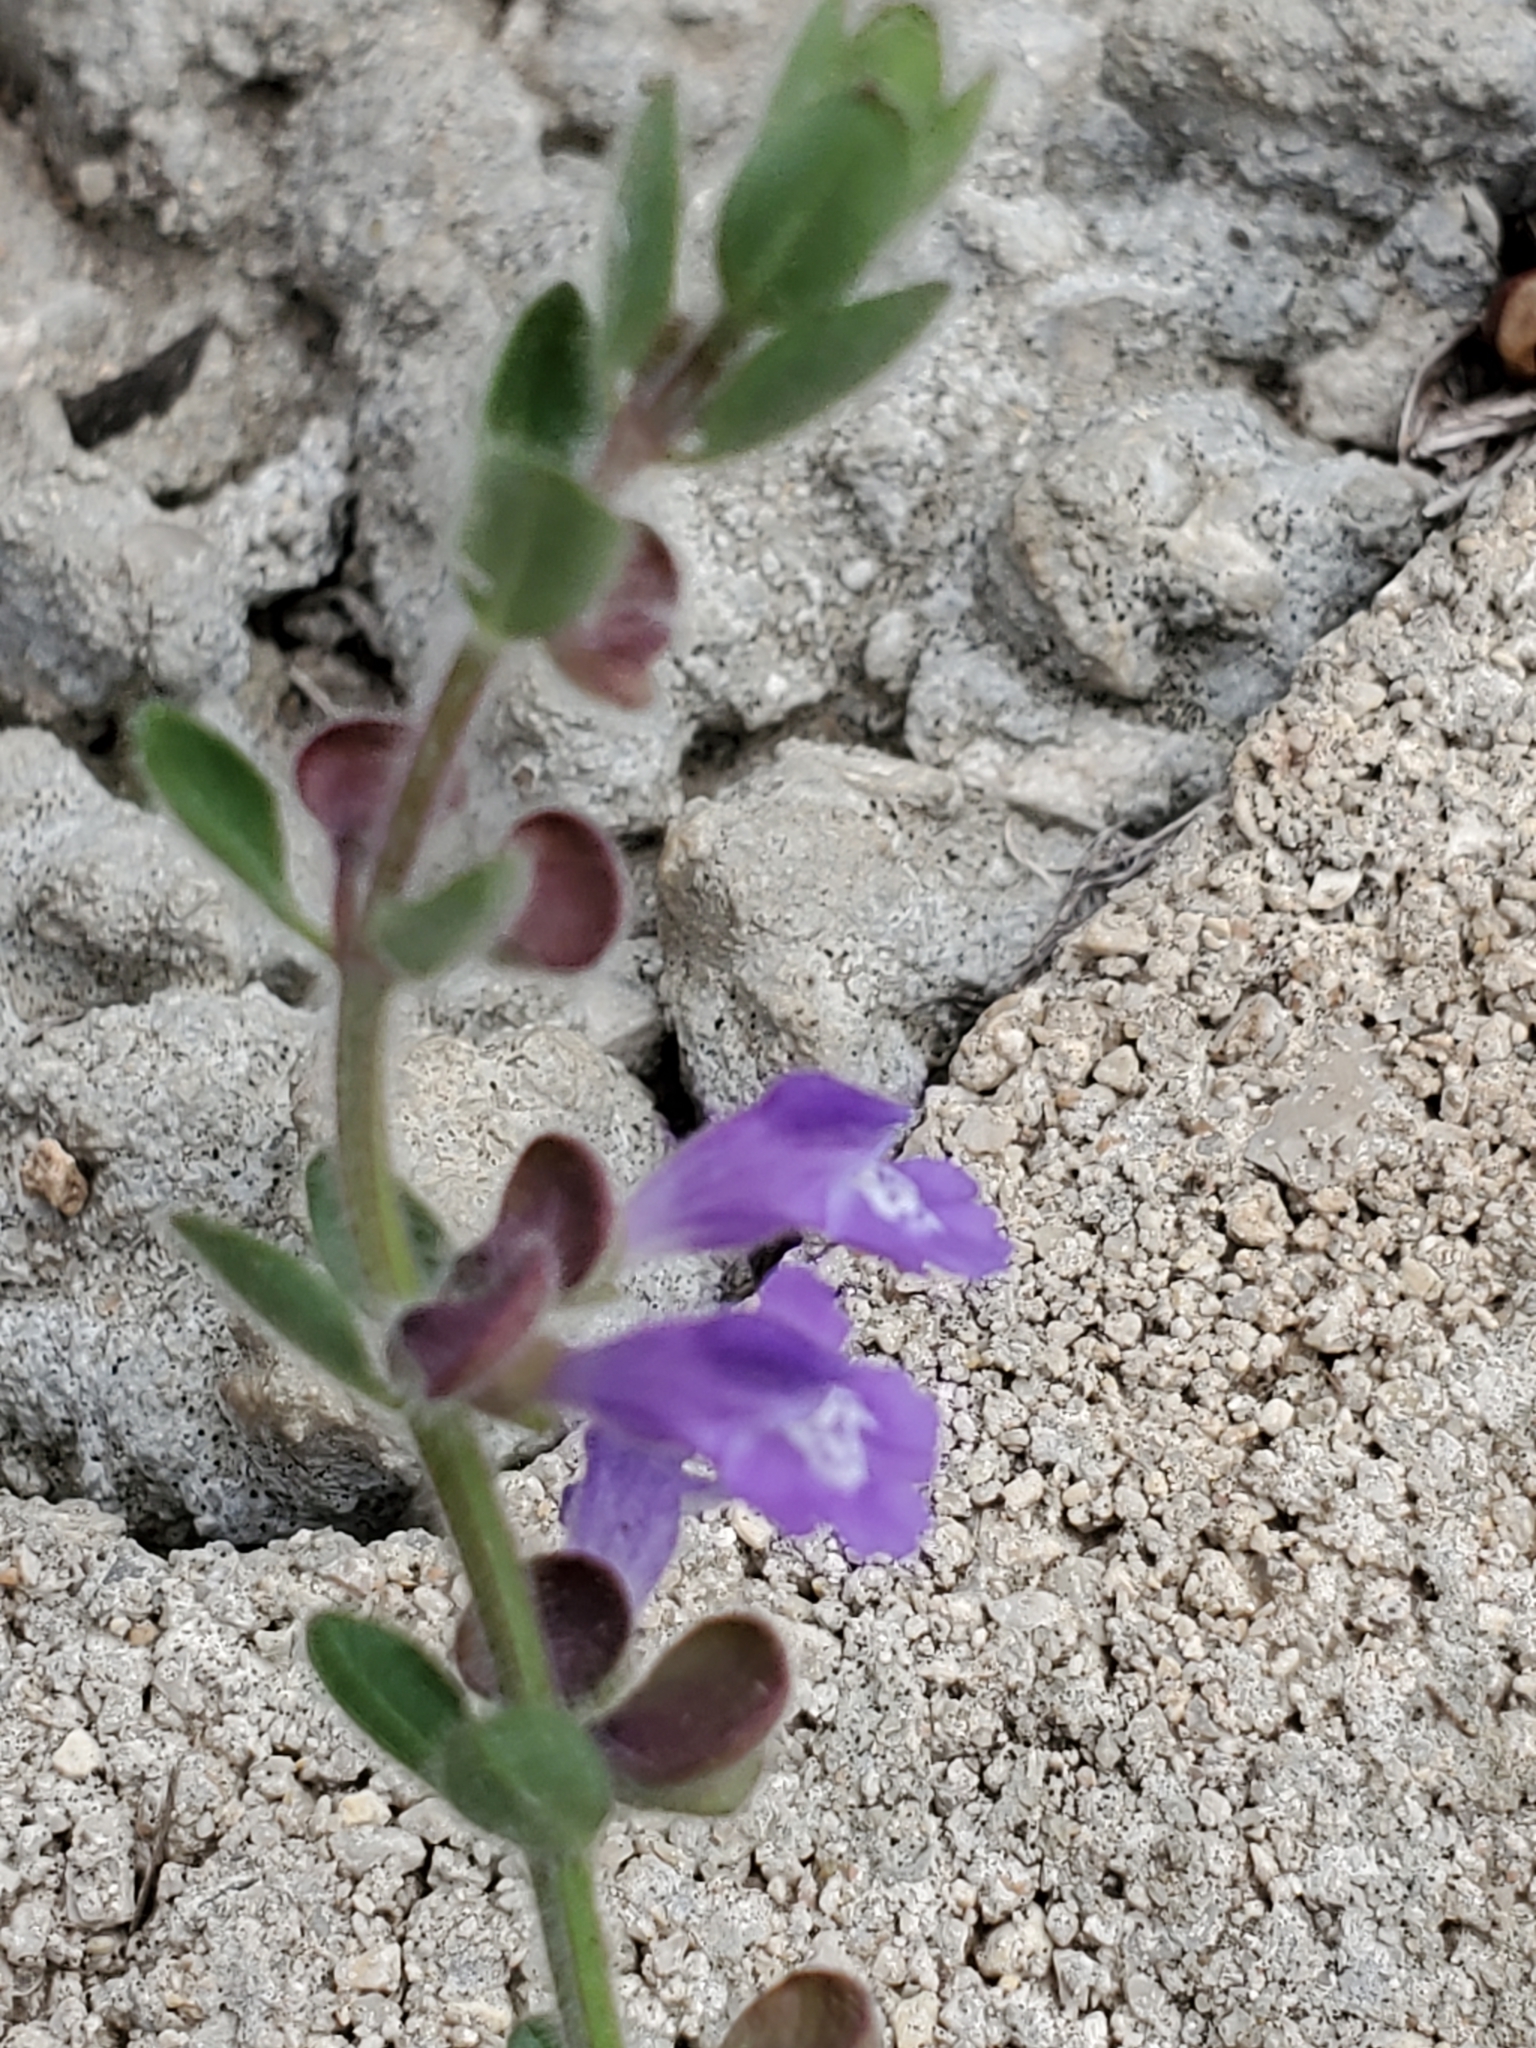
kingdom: Plantae
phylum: Tracheophyta
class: Magnoliopsida
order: Lamiales
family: Lamiaceae
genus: Scutellaria
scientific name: Scutellaria drummondii
